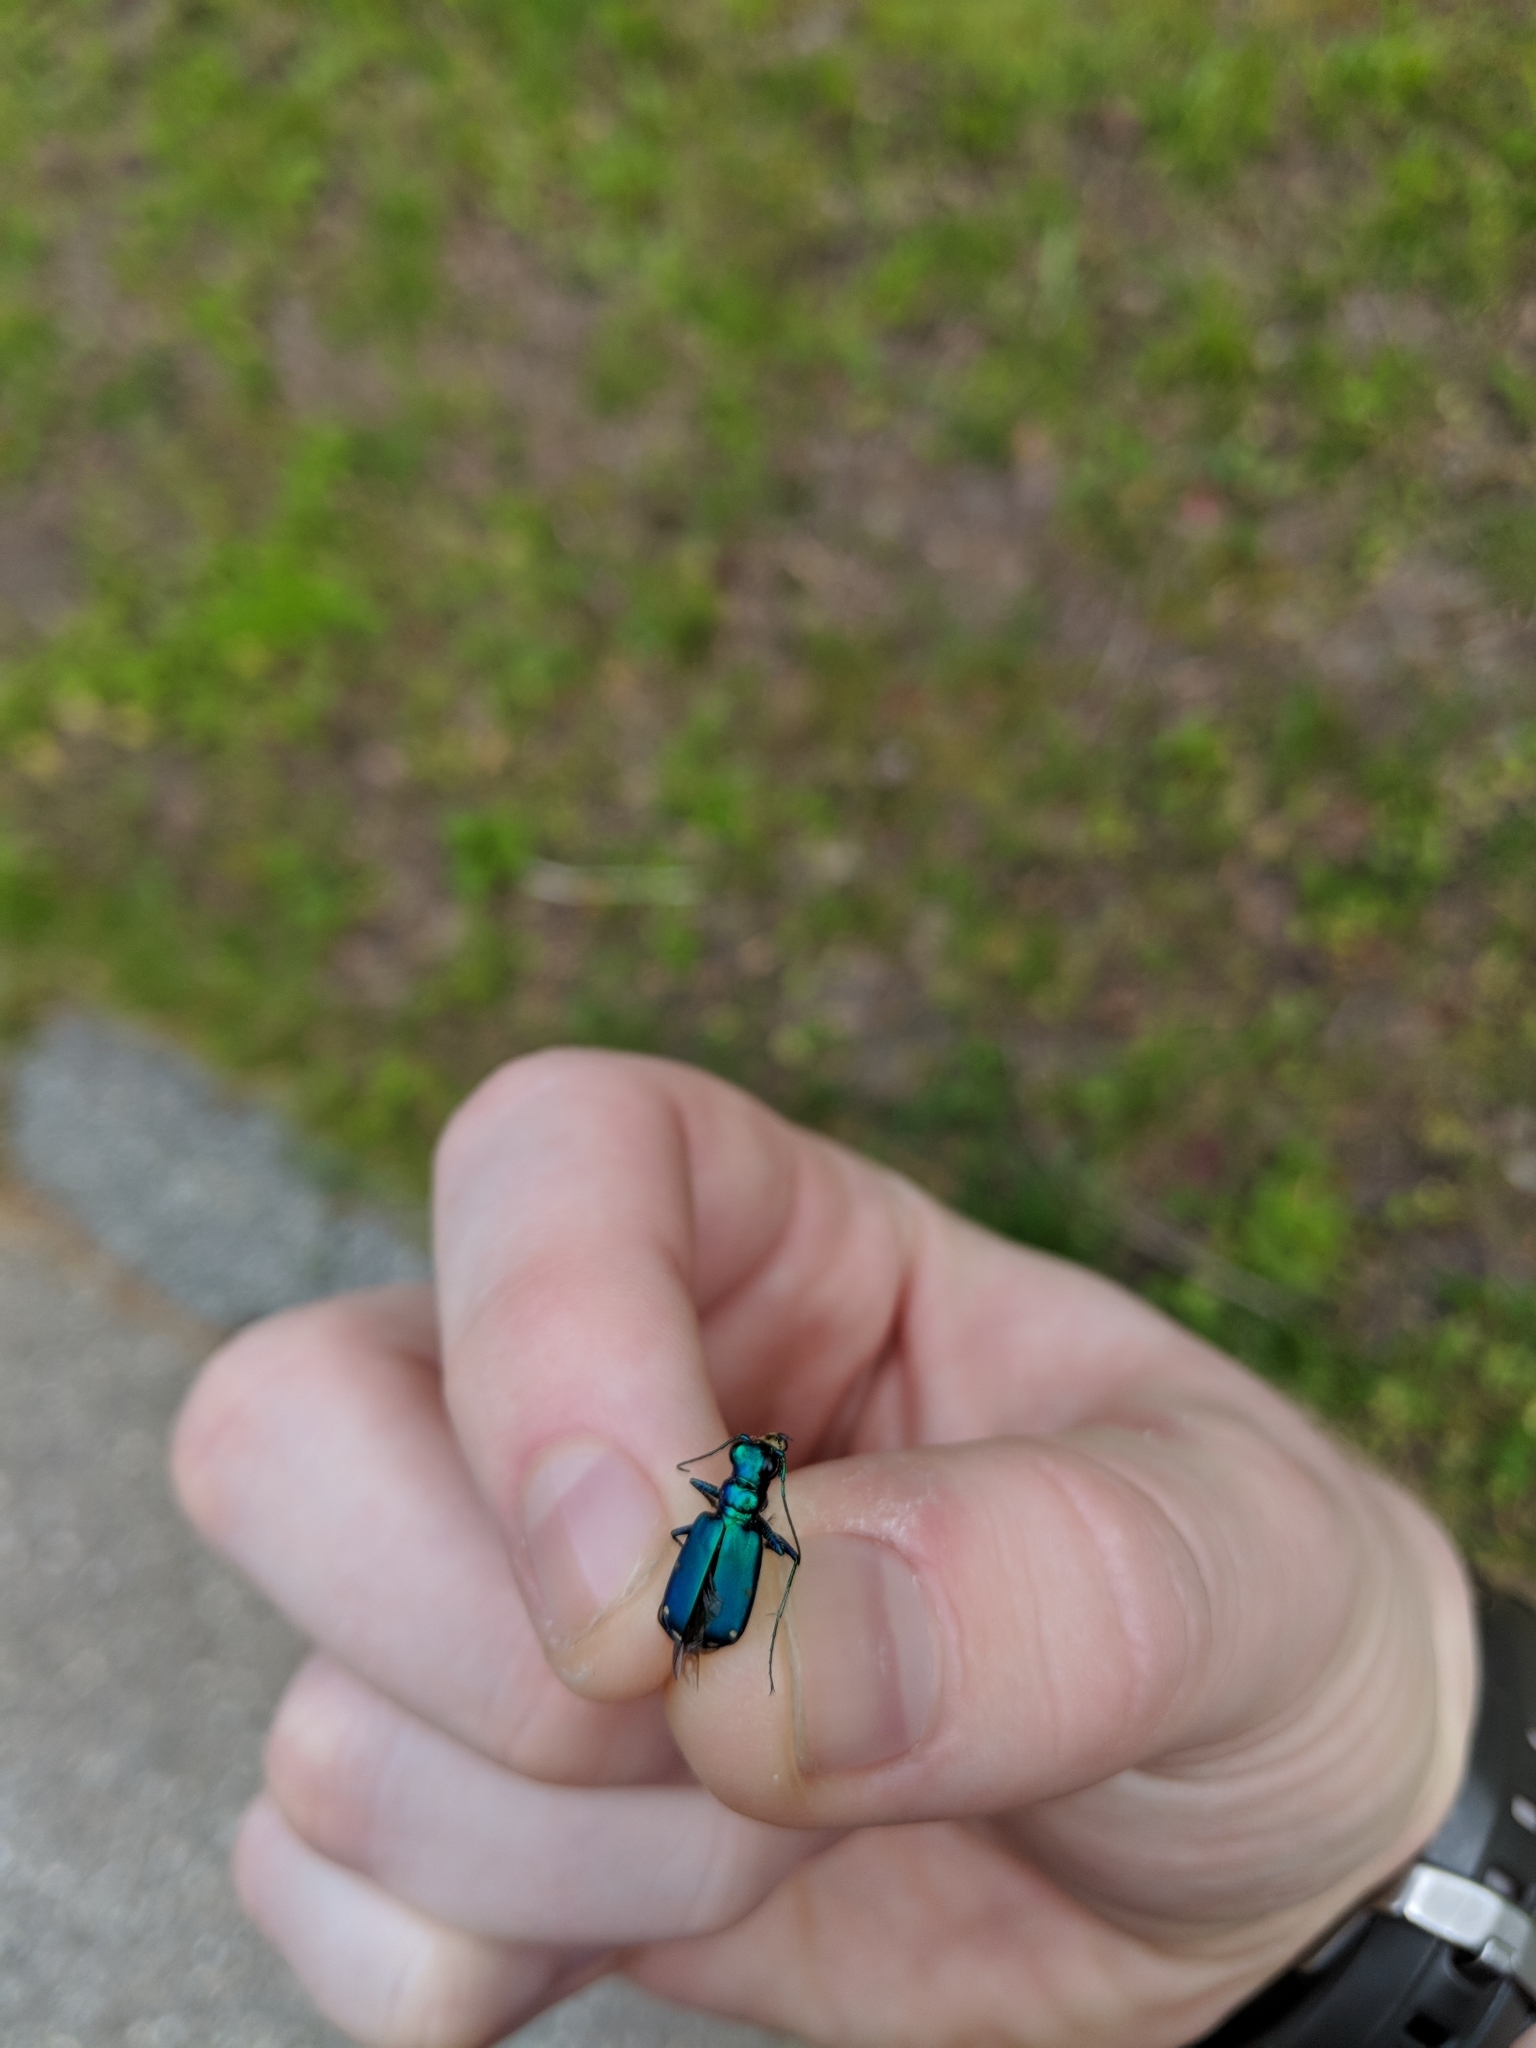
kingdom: Animalia
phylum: Arthropoda
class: Insecta
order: Coleoptera
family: Carabidae
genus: Cicindela
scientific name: Cicindela sexguttata
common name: Six-spotted tiger beetle
